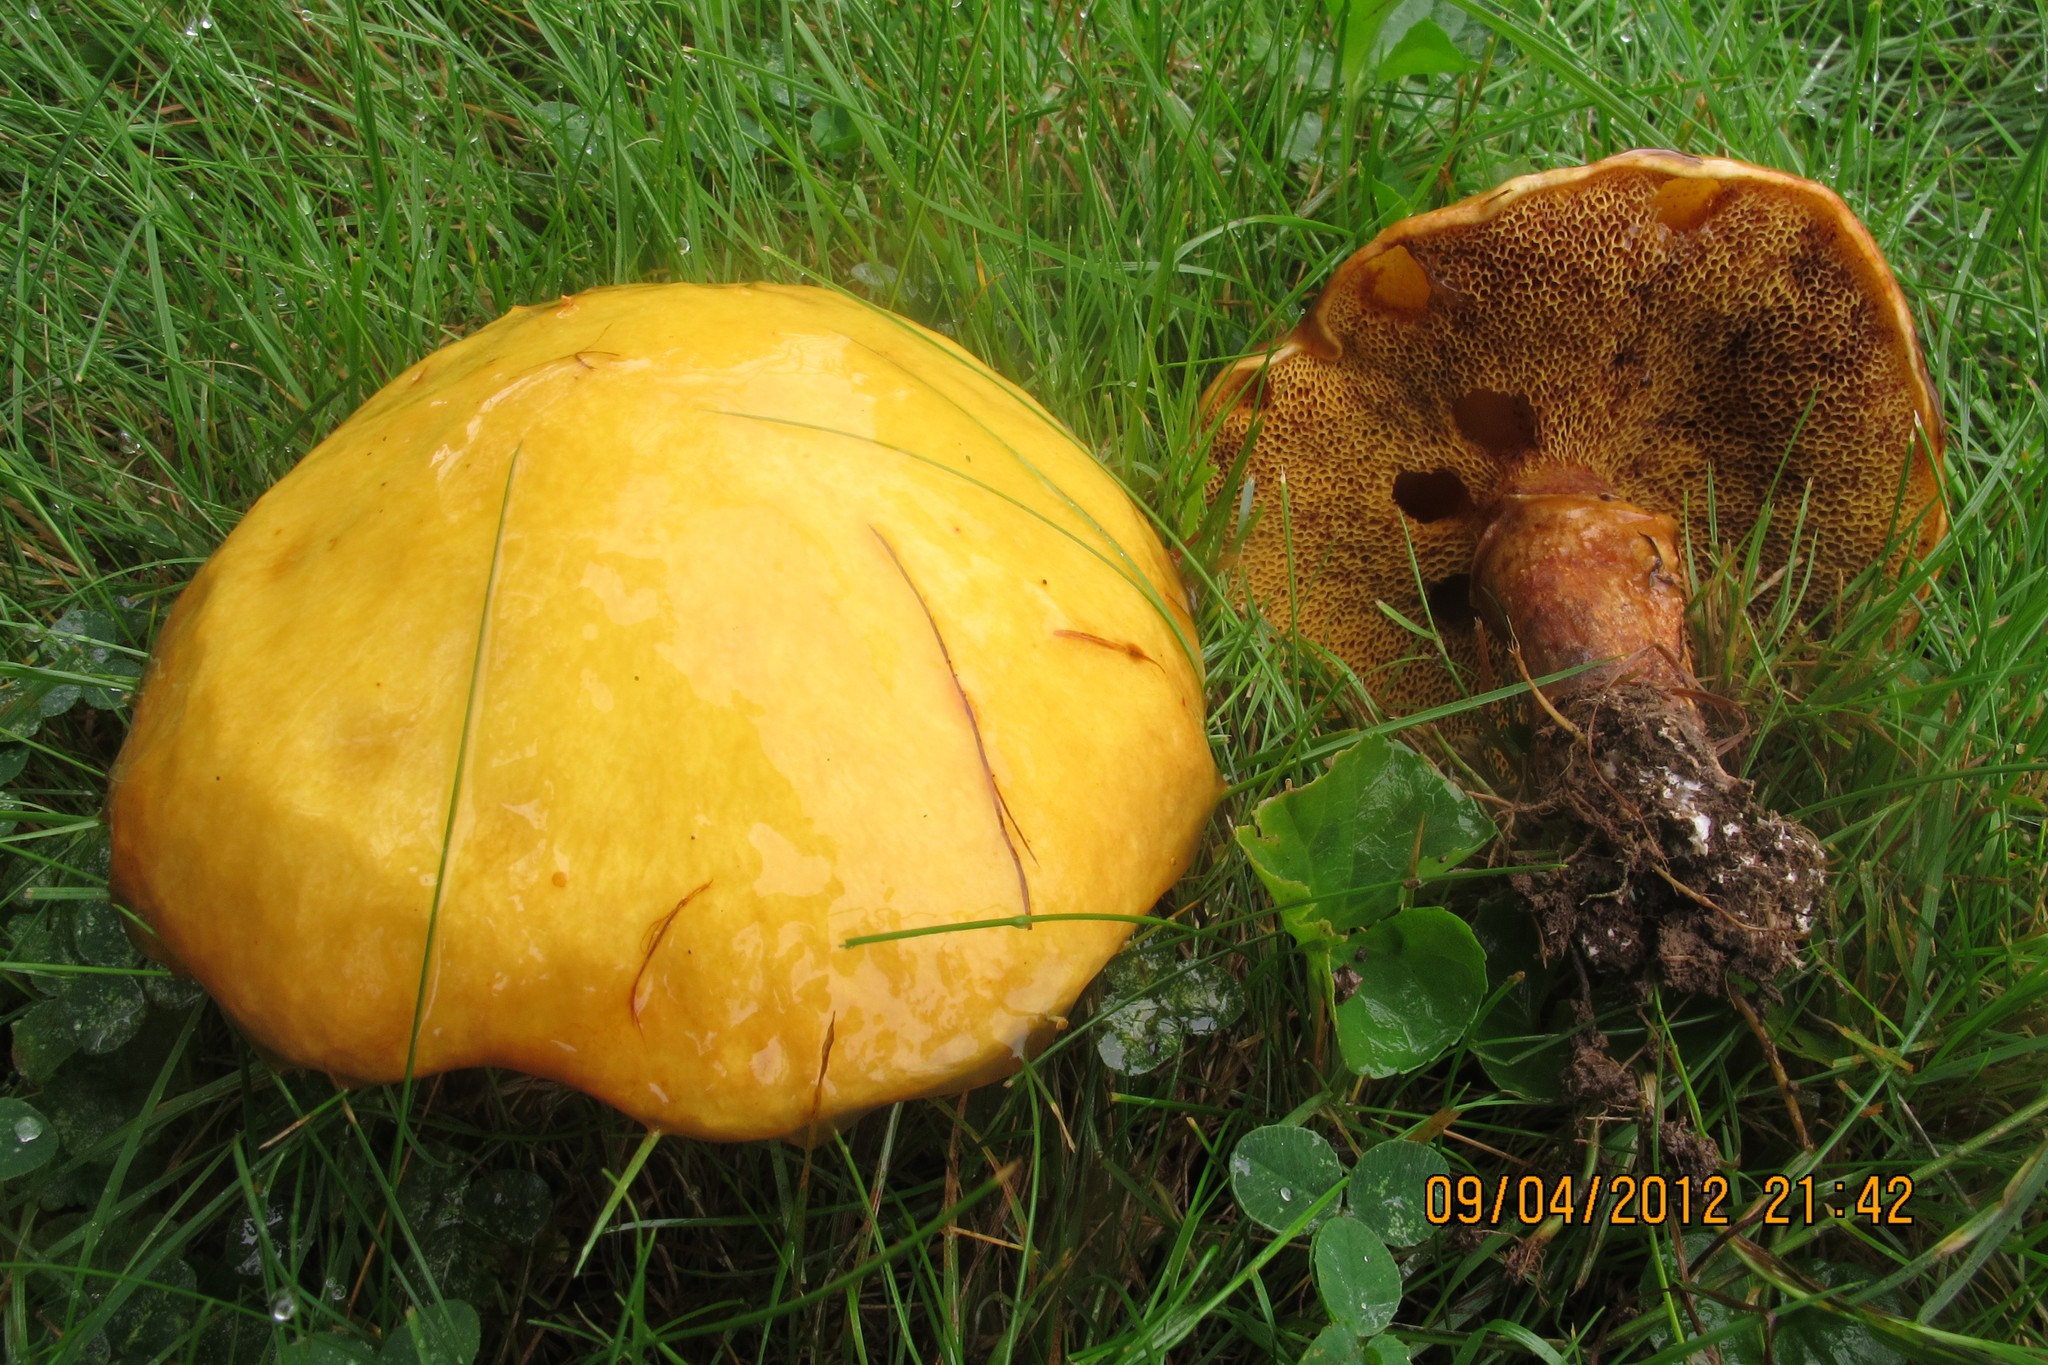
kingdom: Fungi
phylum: Basidiomycota
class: Agaricomycetes
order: Boletales
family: Suillaceae
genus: Suillus
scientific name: Suillus grevillei
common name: Larch bolete
